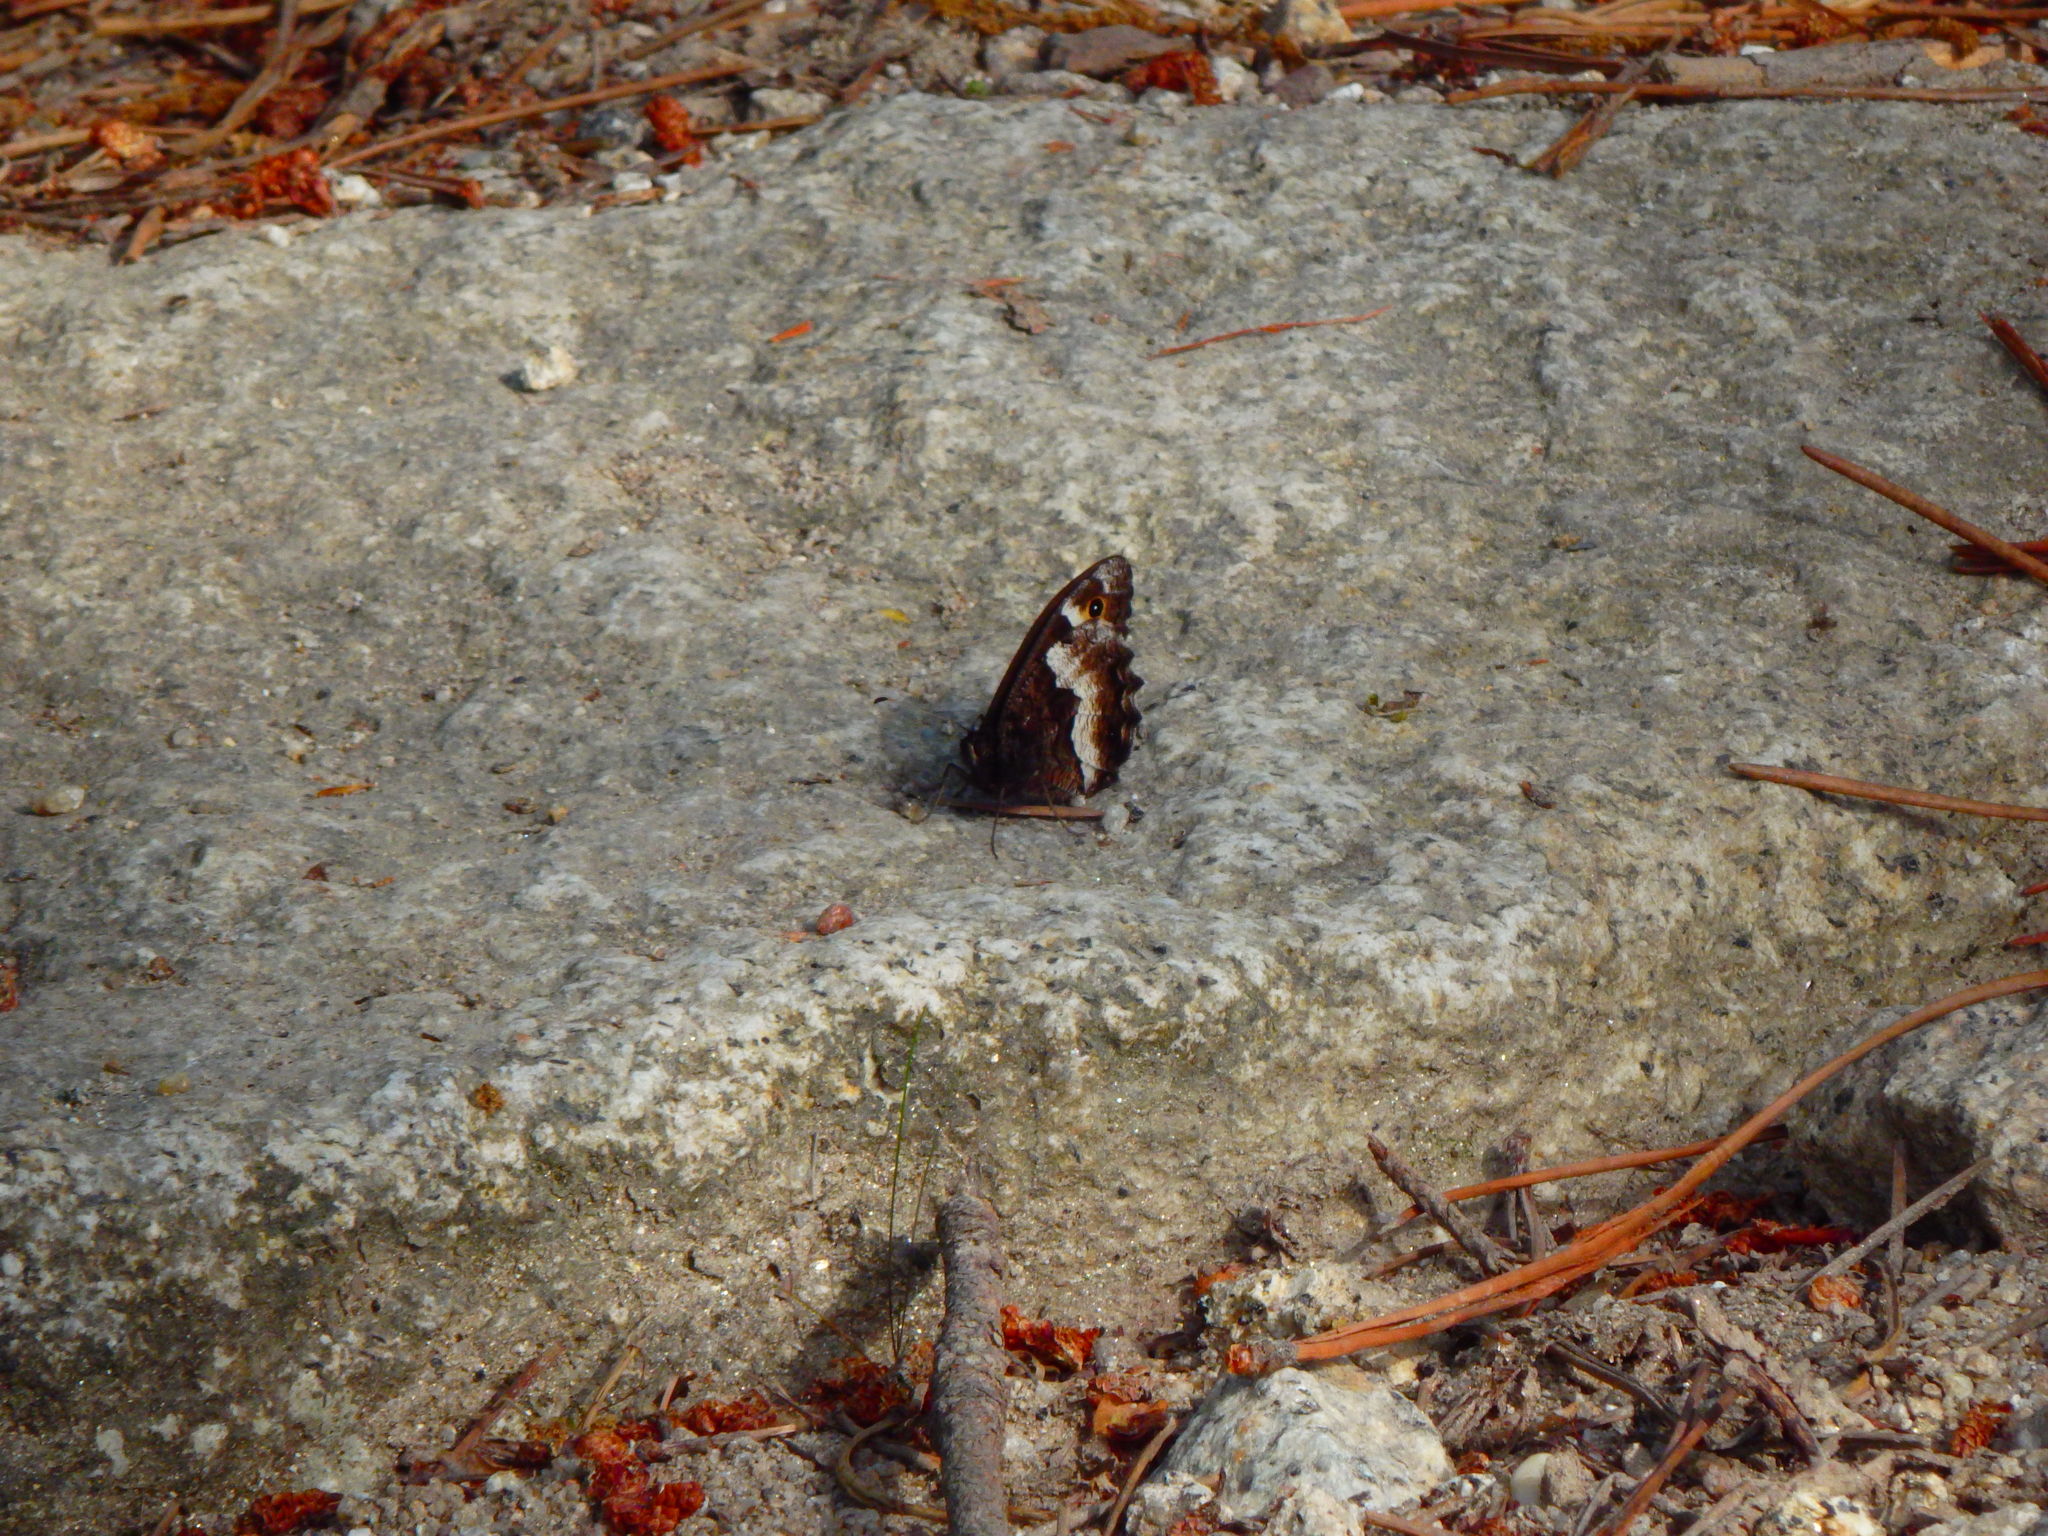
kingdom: Animalia
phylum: Arthropoda
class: Insecta
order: Lepidoptera
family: Nymphalidae
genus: Hipparchia
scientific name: Hipparchia hermione
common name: Rock grayling
